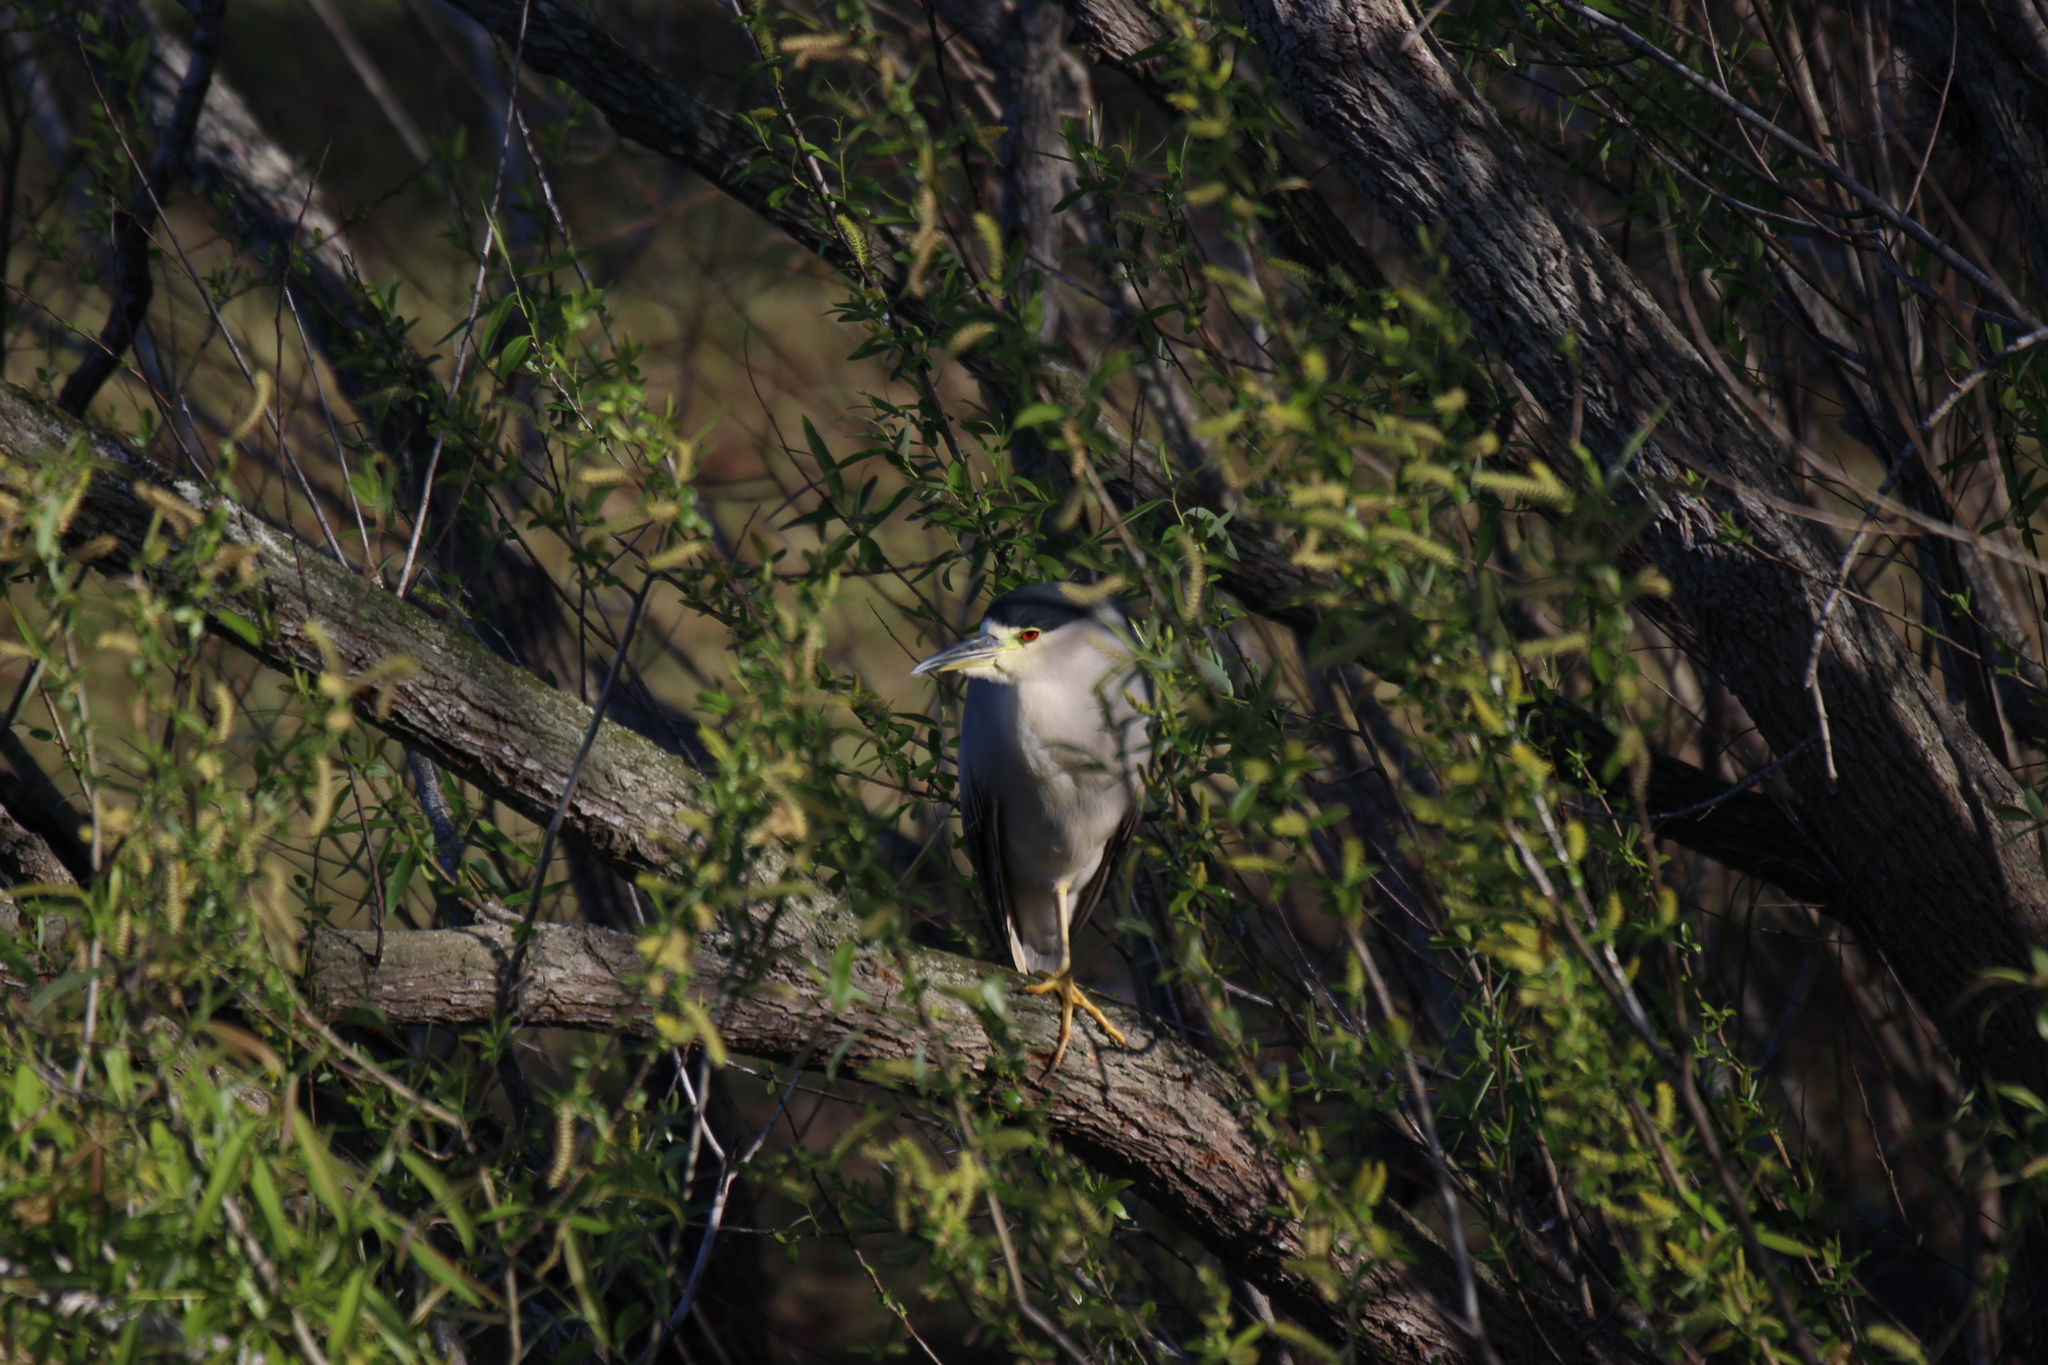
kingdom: Animalia
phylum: Chordata
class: Aves
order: Pelecaniformes
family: Ardeidae
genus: Nycticorax
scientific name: Nycticorax nycticorax
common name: Black-crowned night heron
